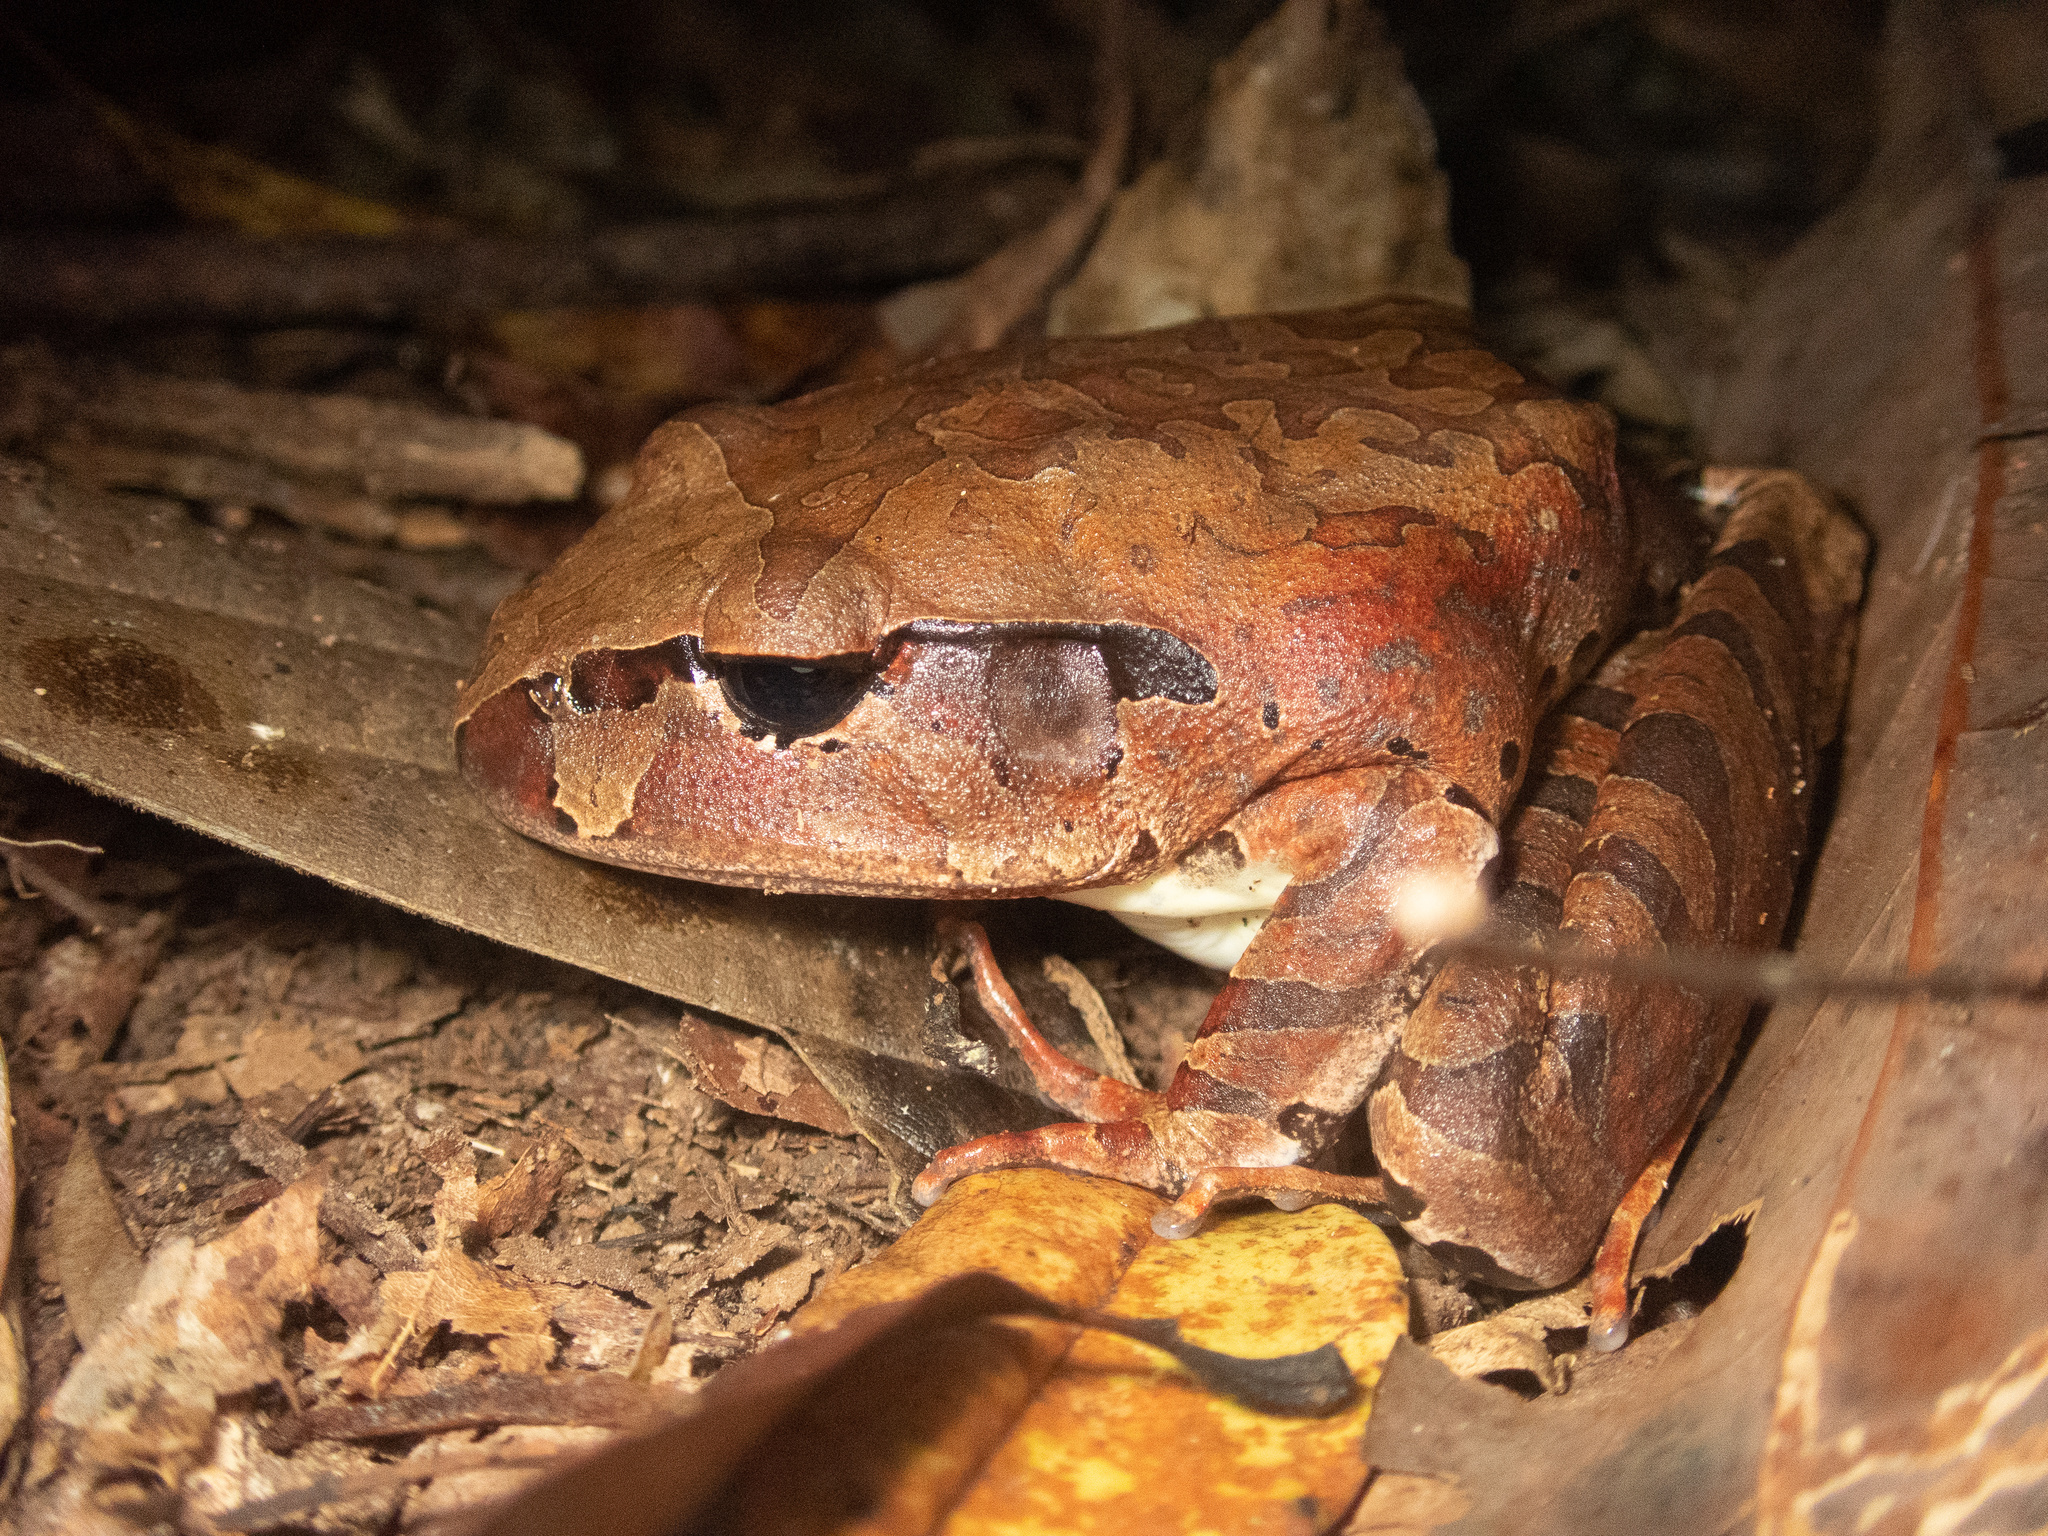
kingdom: Animalia
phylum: Chordata
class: Amphibia
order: Anura
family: Myobatrachidae
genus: Mixophyes
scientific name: Mixophyes coggeri
